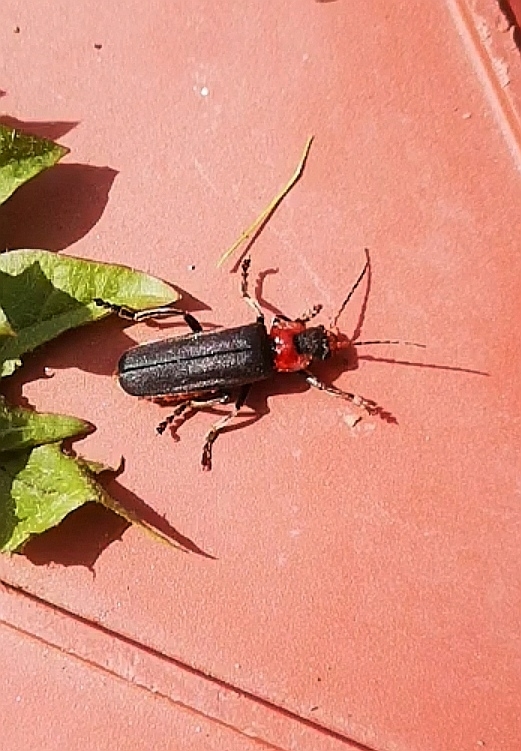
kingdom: Animalia
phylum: Arthropoda
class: Insecta
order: Coleoptera
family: Cantharidae
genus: Cantharis
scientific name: Cantharis fusca
